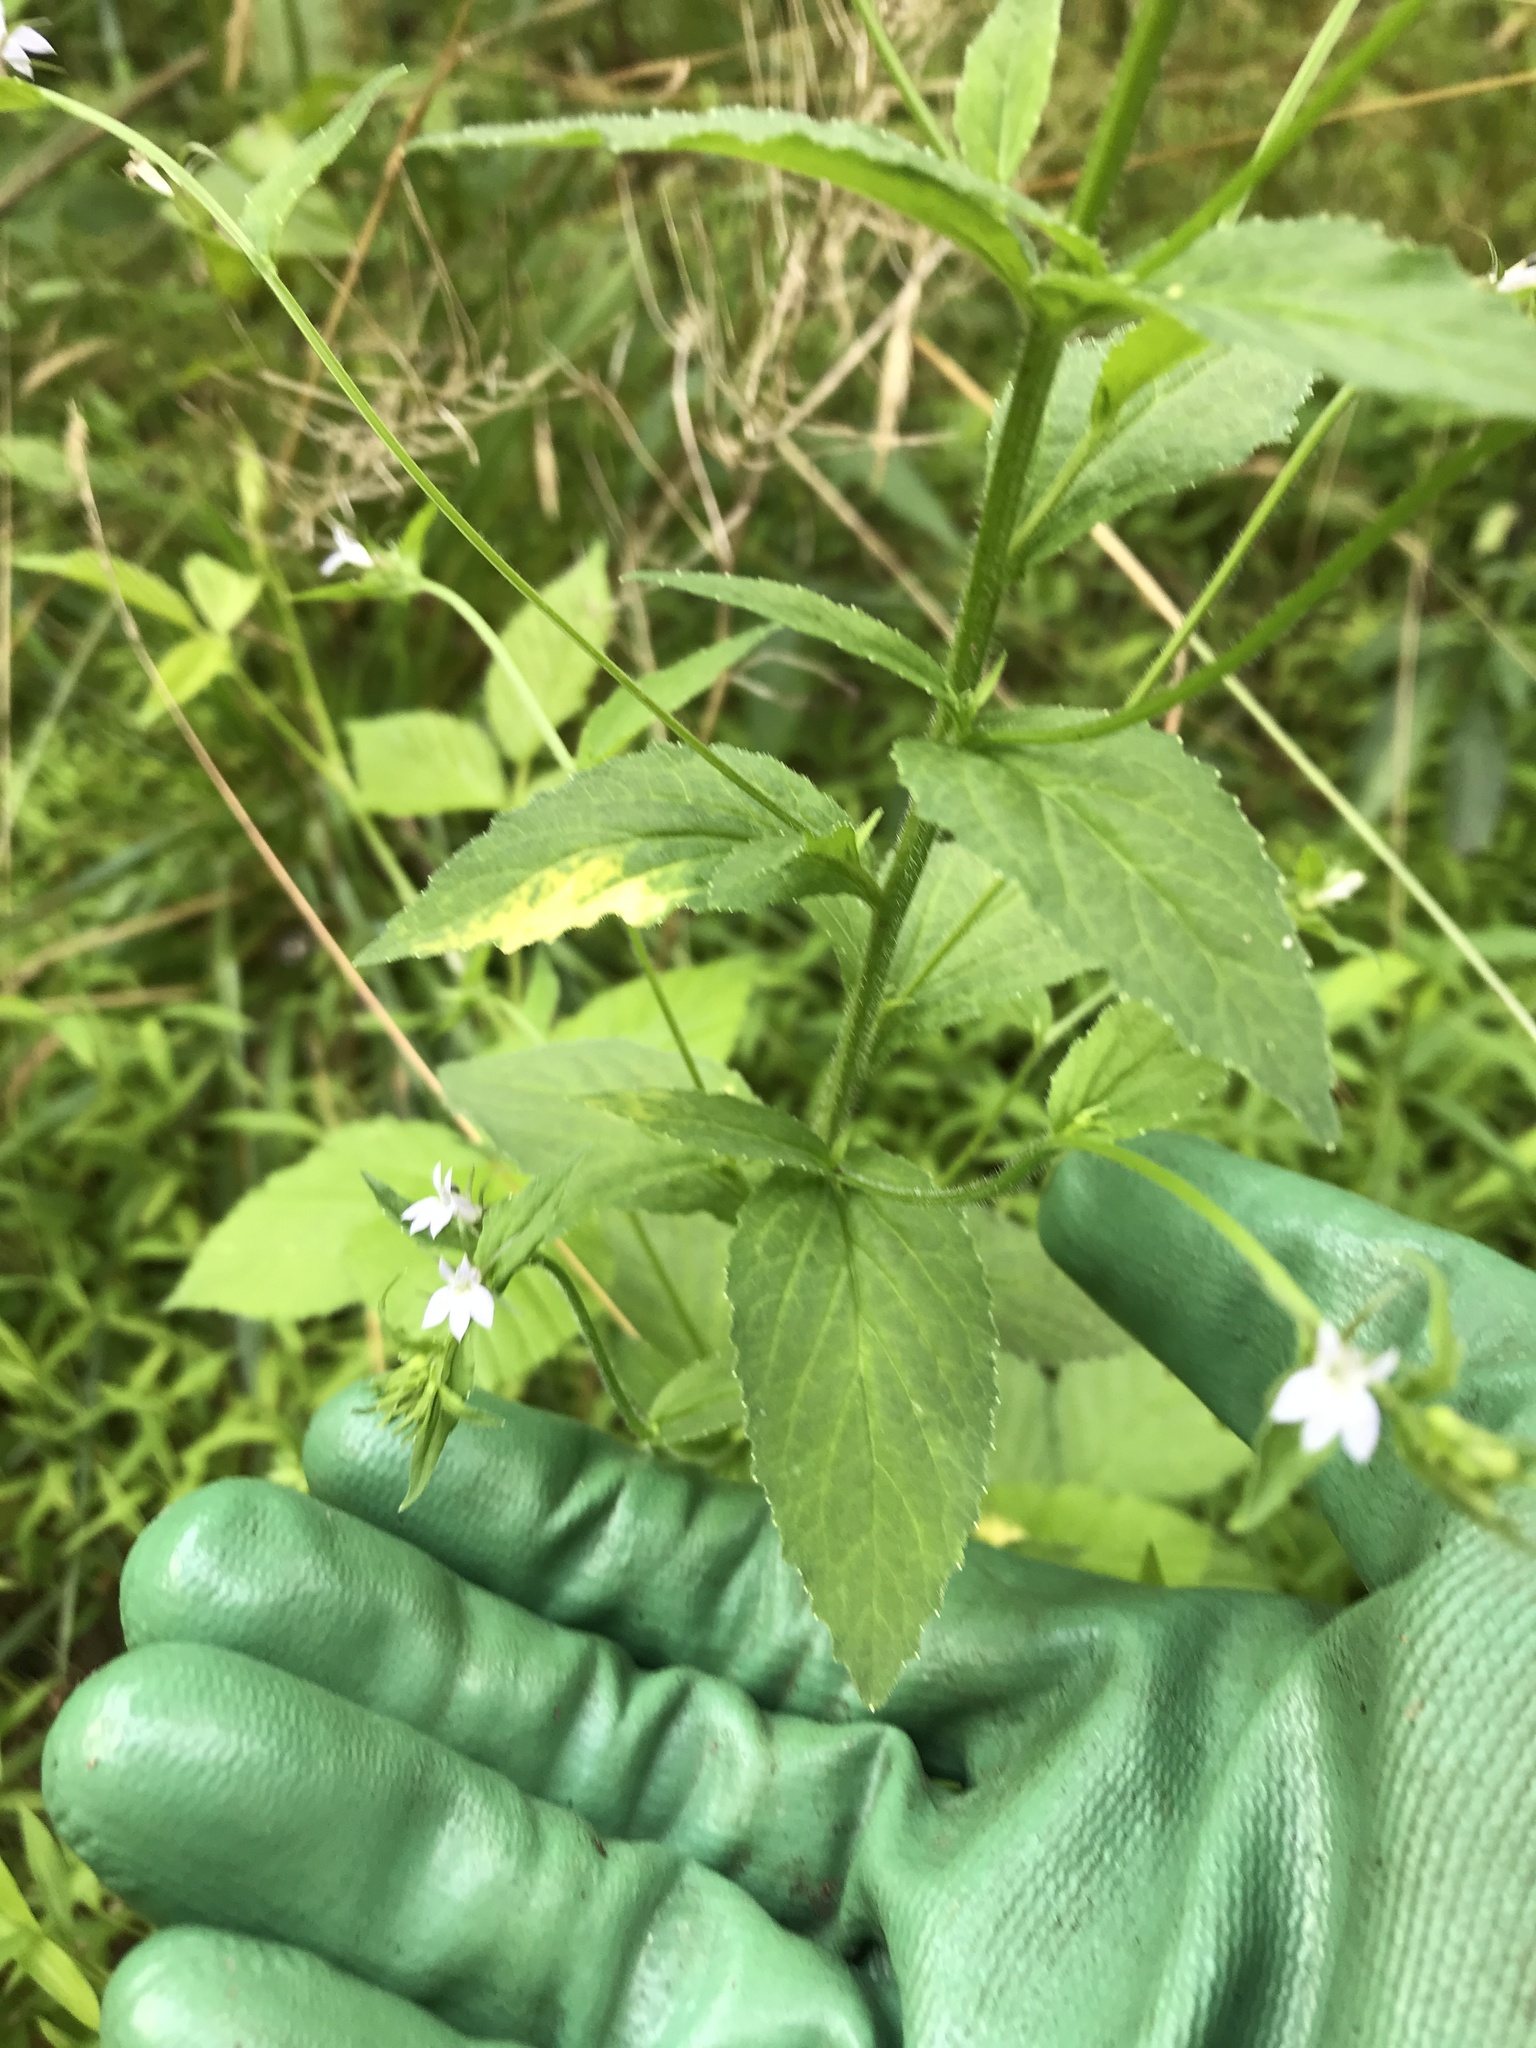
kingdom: Plantae
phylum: Tracheophyta
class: Magnoliopsida
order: Asterales
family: Campanulaceae
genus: Lobelia
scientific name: Lobelia inflata
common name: Indian tobacco
